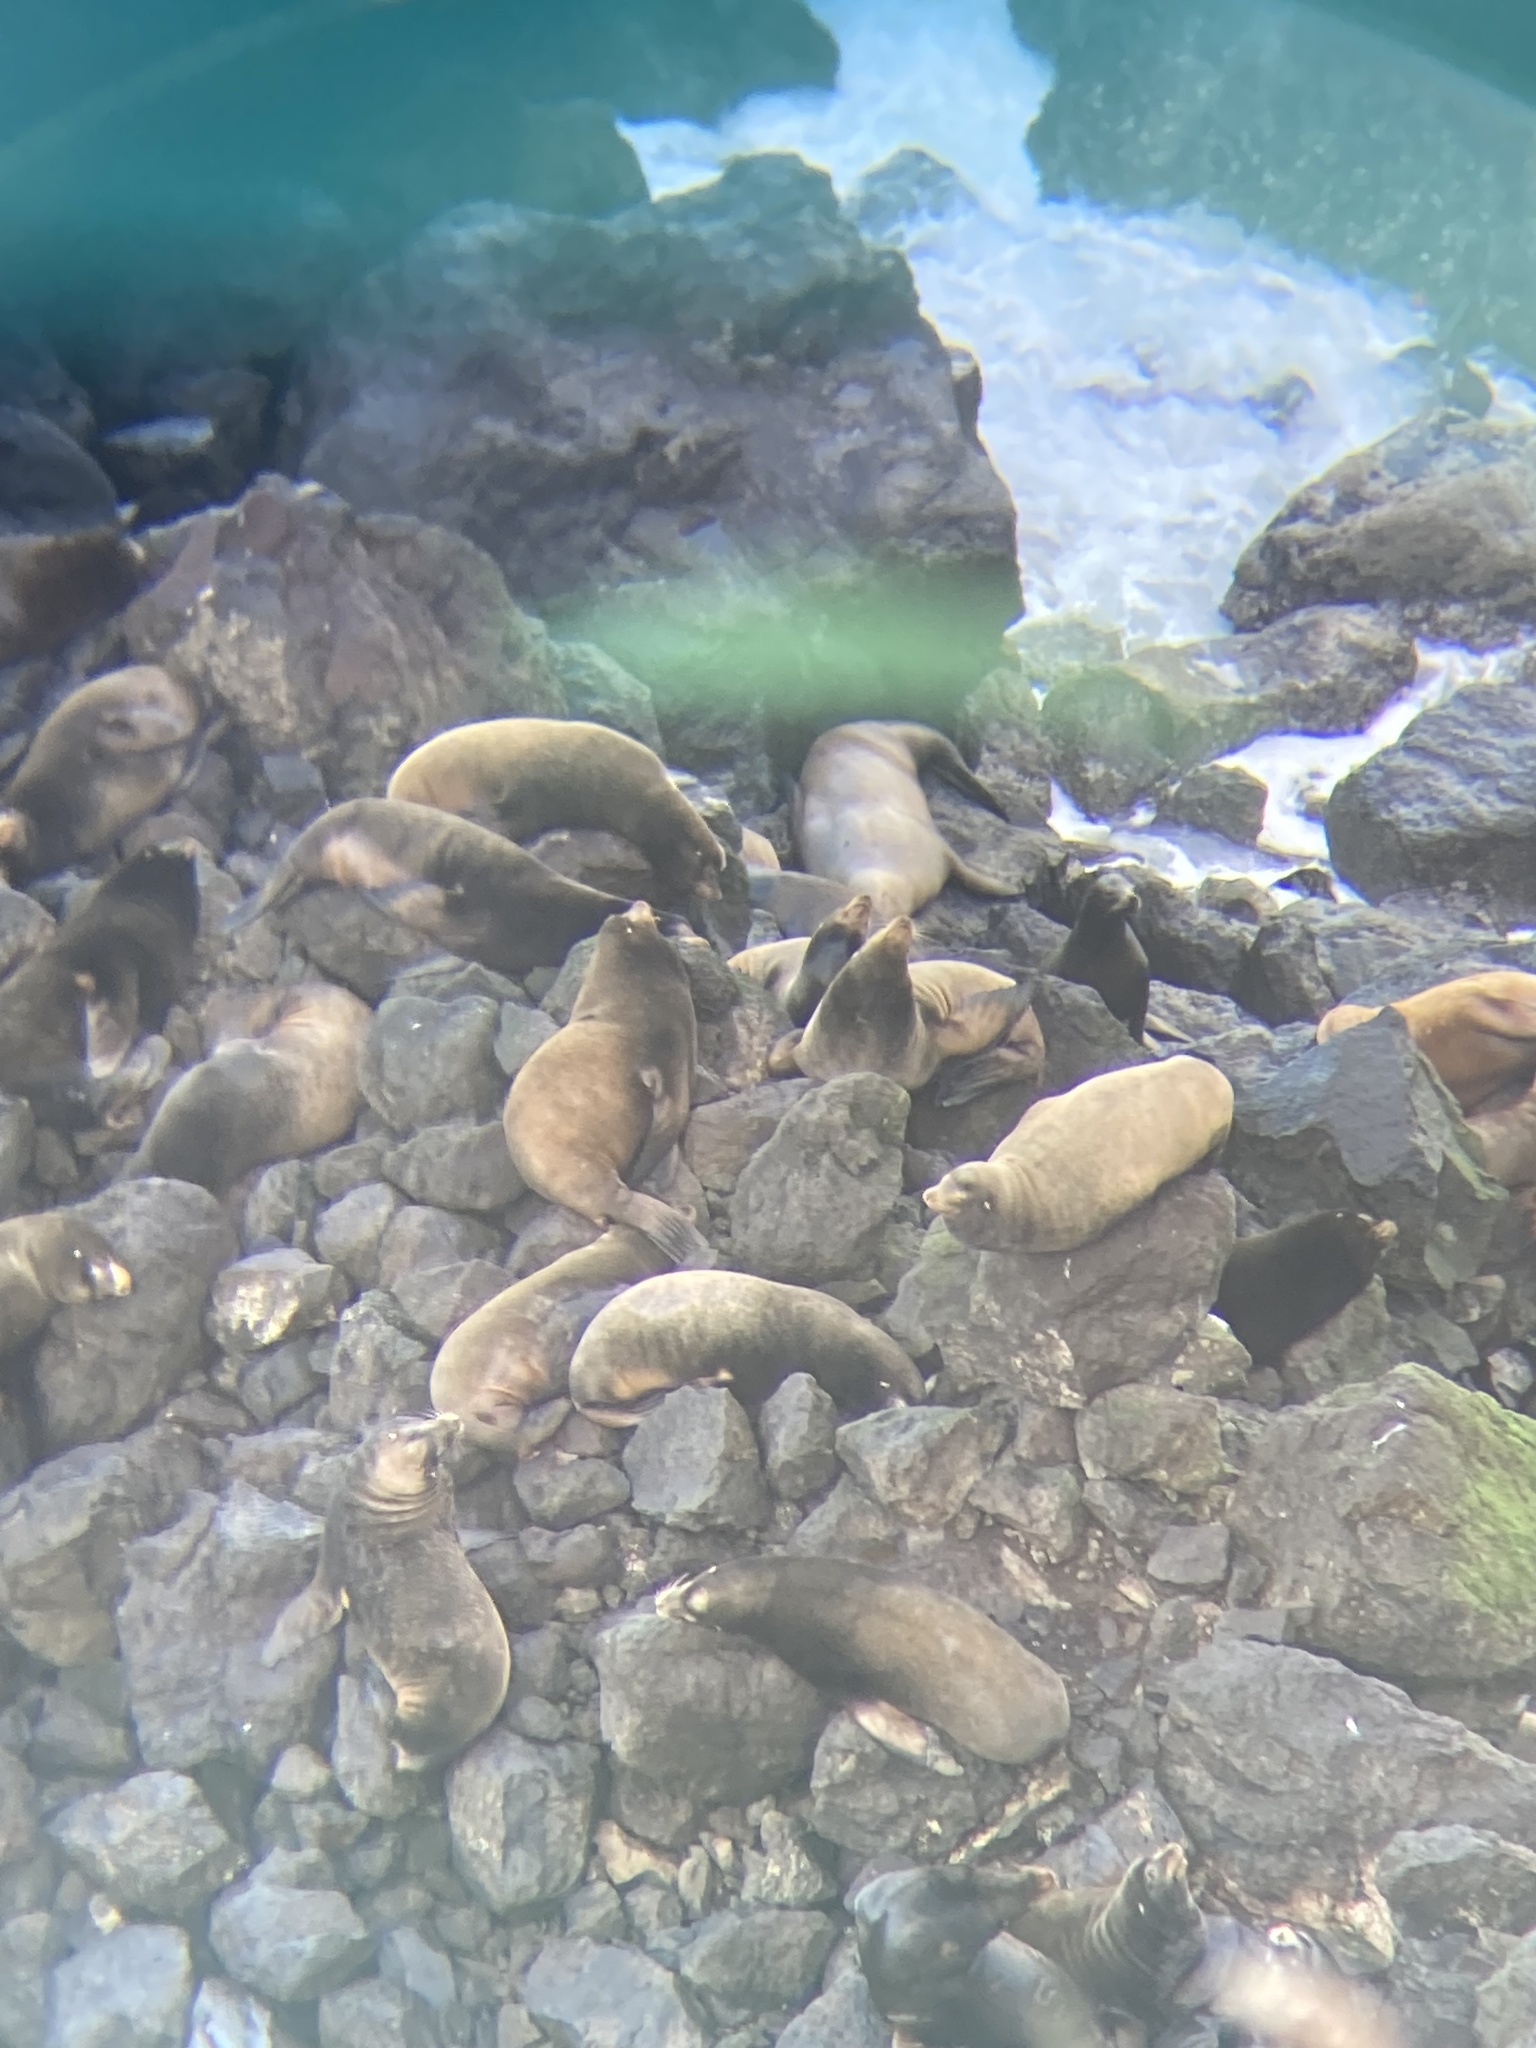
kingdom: Animalia
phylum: Chordata
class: Mammalia
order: Carnivora
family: Otariidae
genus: Zalophus
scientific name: Zalophus californianus
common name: California sea lion
